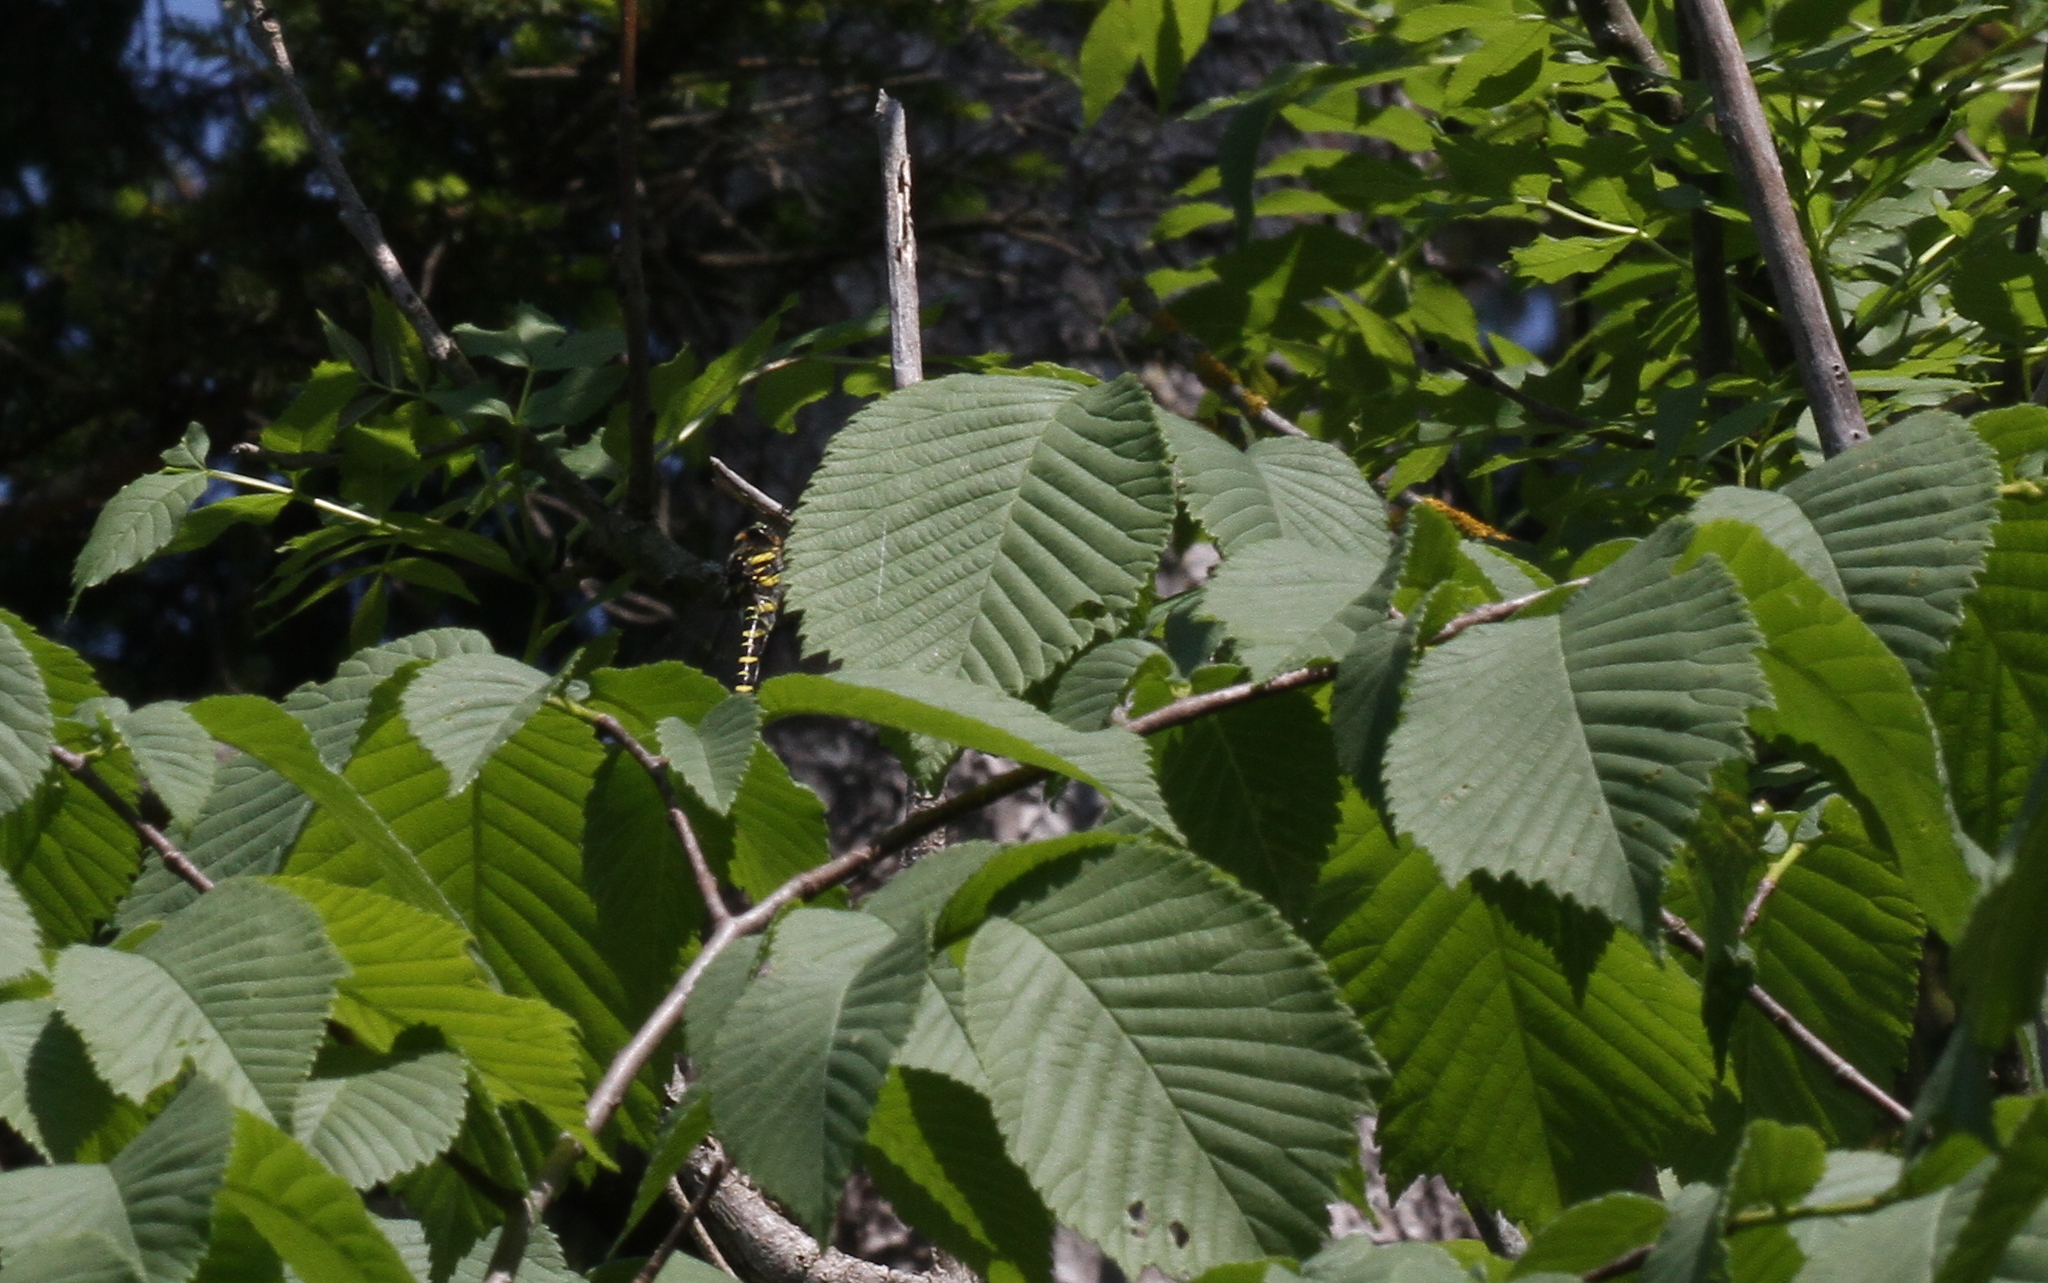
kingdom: Animalia
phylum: Arthropoda
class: Insecta
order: Odonata
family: Cordulegastridae
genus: Cordulegaster
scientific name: Cordulegaster boltonii
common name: Golden-ringed dragonfly
